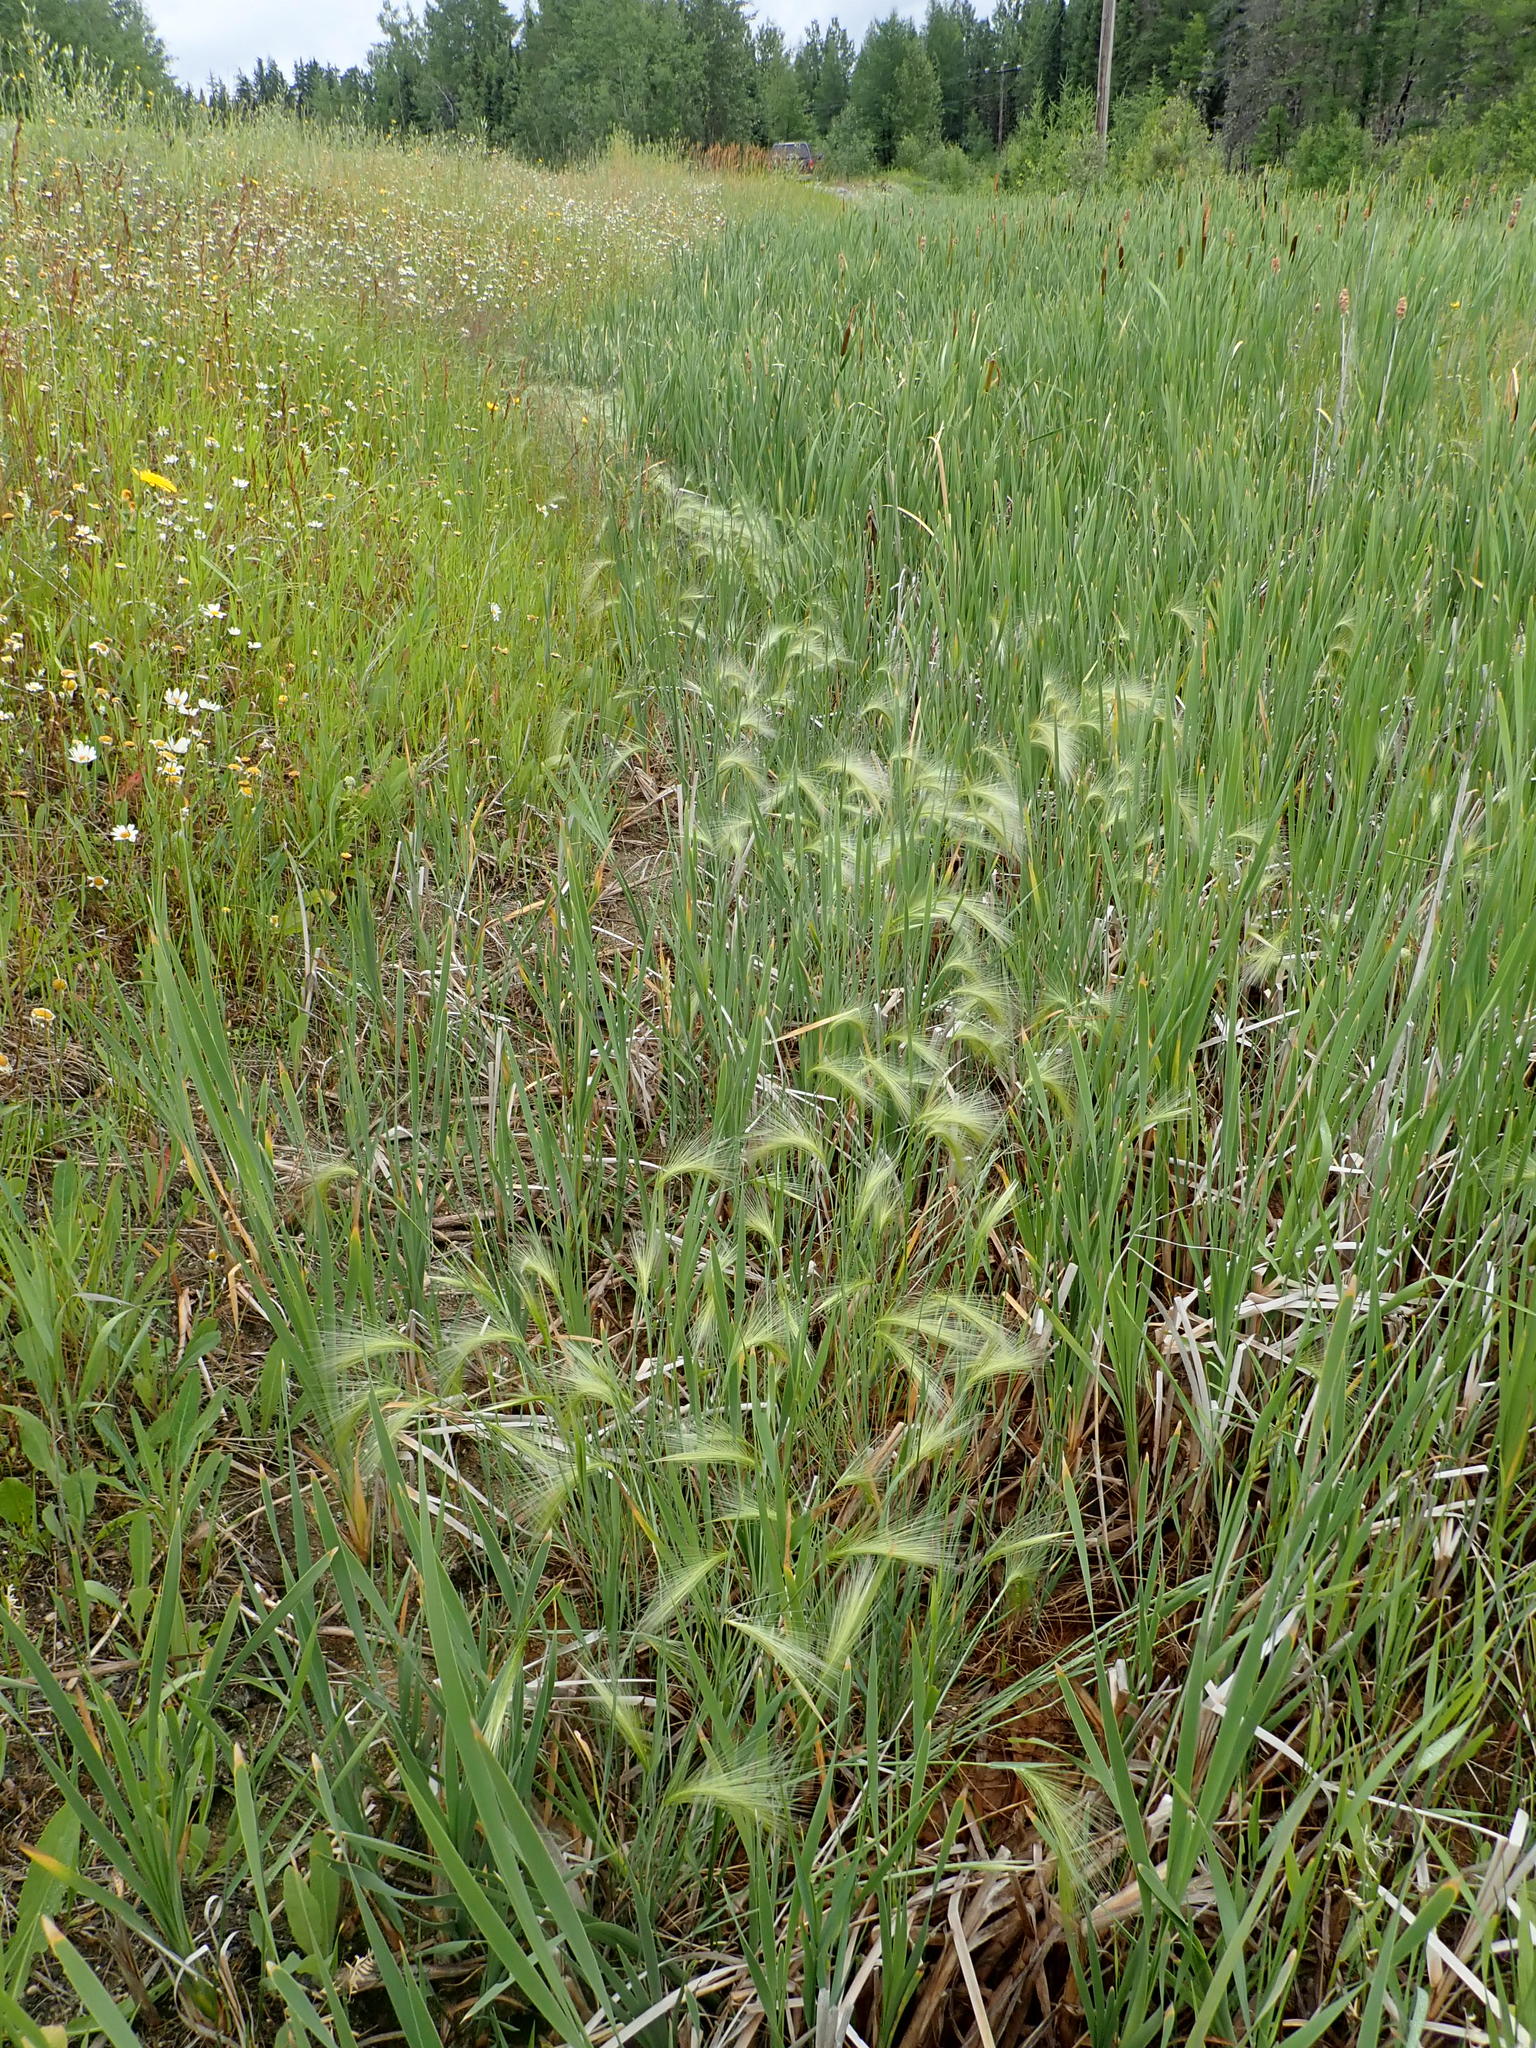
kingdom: Plantae
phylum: Tracheophyta
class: Liliopsida
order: Poales
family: Poaceae
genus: Hordeum
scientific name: Hordeum jubatum
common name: Foxtail barley
